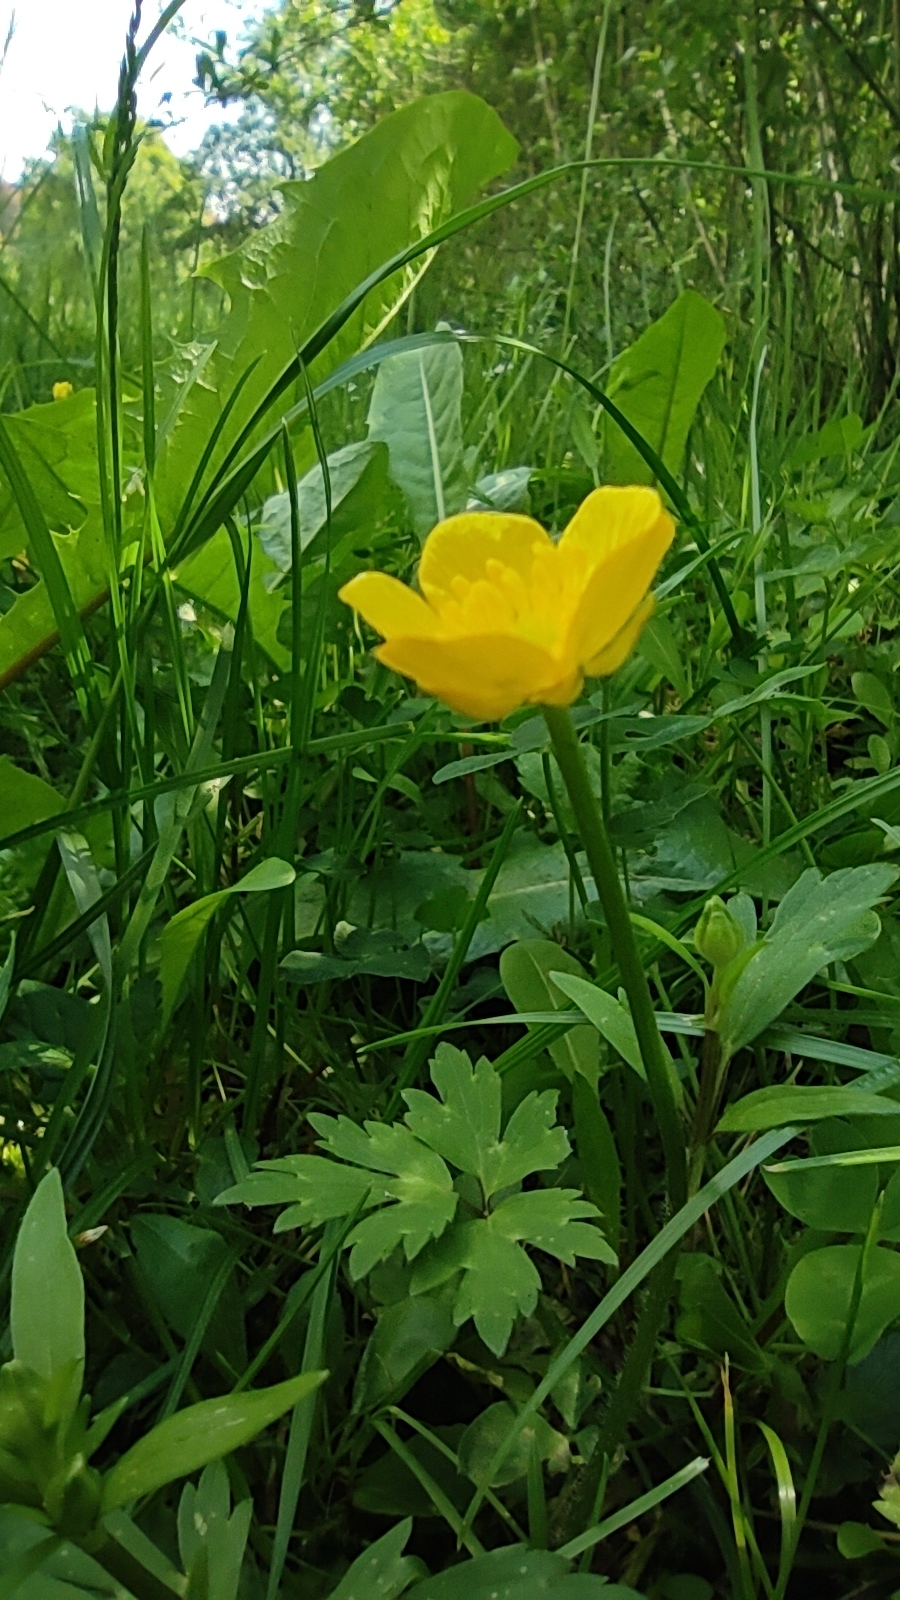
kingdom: Plantae
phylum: Tracheophyta
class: Magnoliopsida
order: Ranunculales
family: Ranunculaceae
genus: Ranunculus
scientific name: Ranunculus repens
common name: Creeping buttercup
